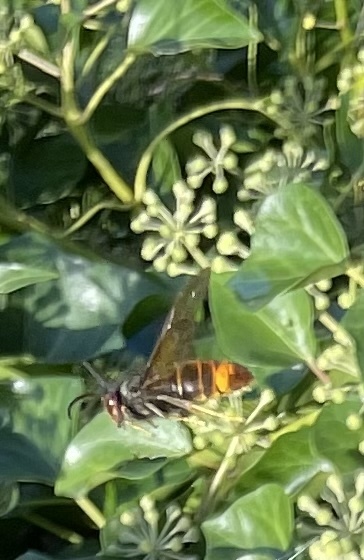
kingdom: Animalia
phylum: Arthropoda
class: Insecta
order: Hymenoptera
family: Vespidae
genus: Vespa
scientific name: Vespa velutina
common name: Asian hornet
